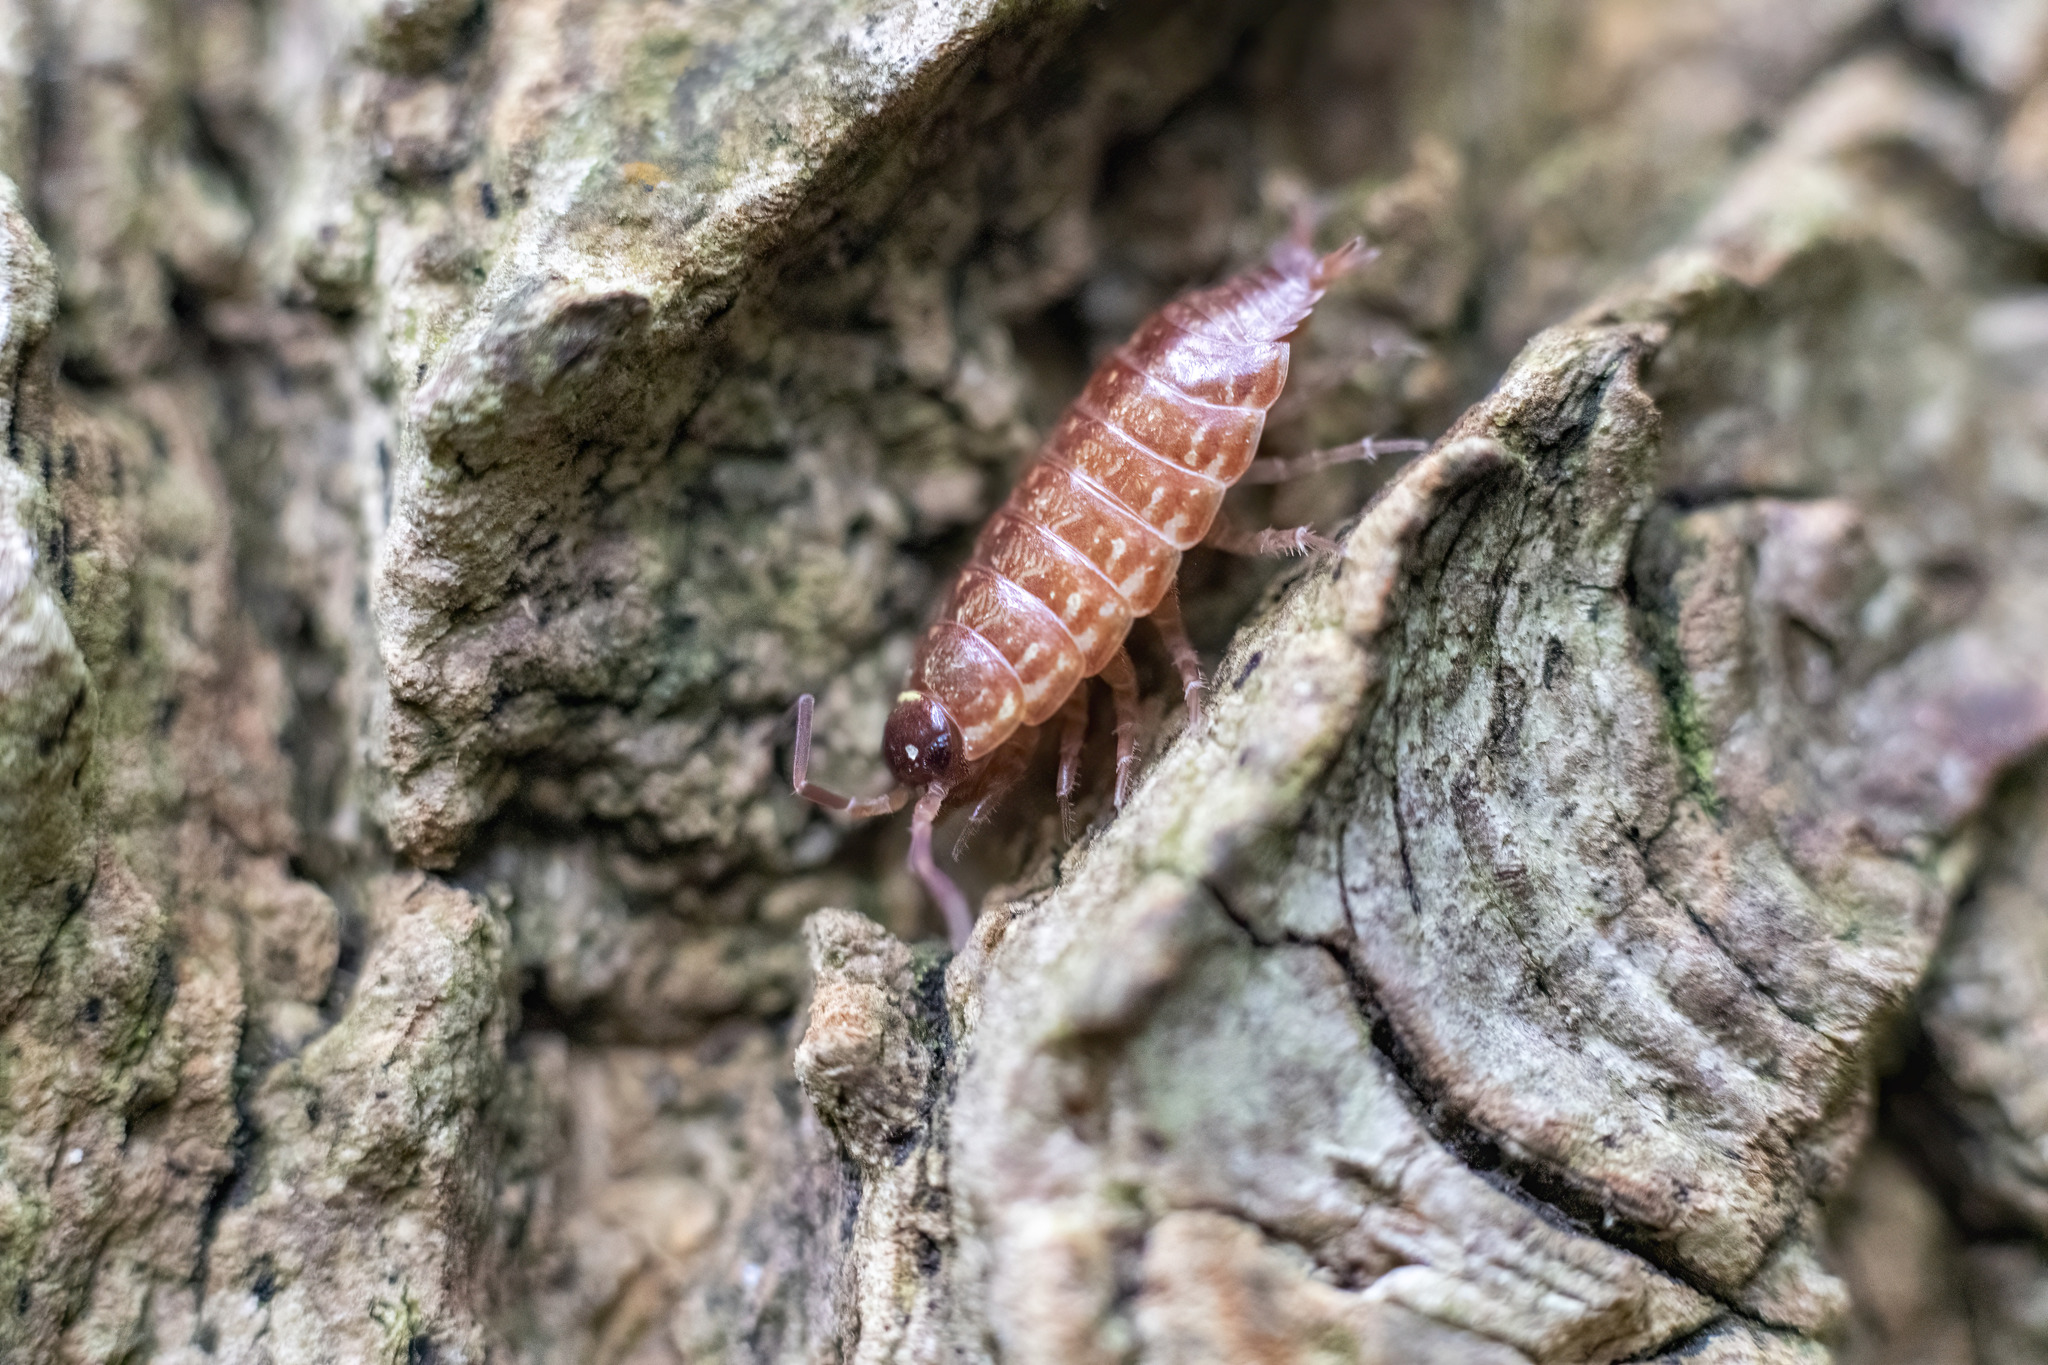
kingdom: Animalia
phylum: Arthropoda
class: Malacostraca
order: Isopoda
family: Philosciidae
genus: Philoscia
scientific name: Philoscia muscorum
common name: Common striped woodlouse
